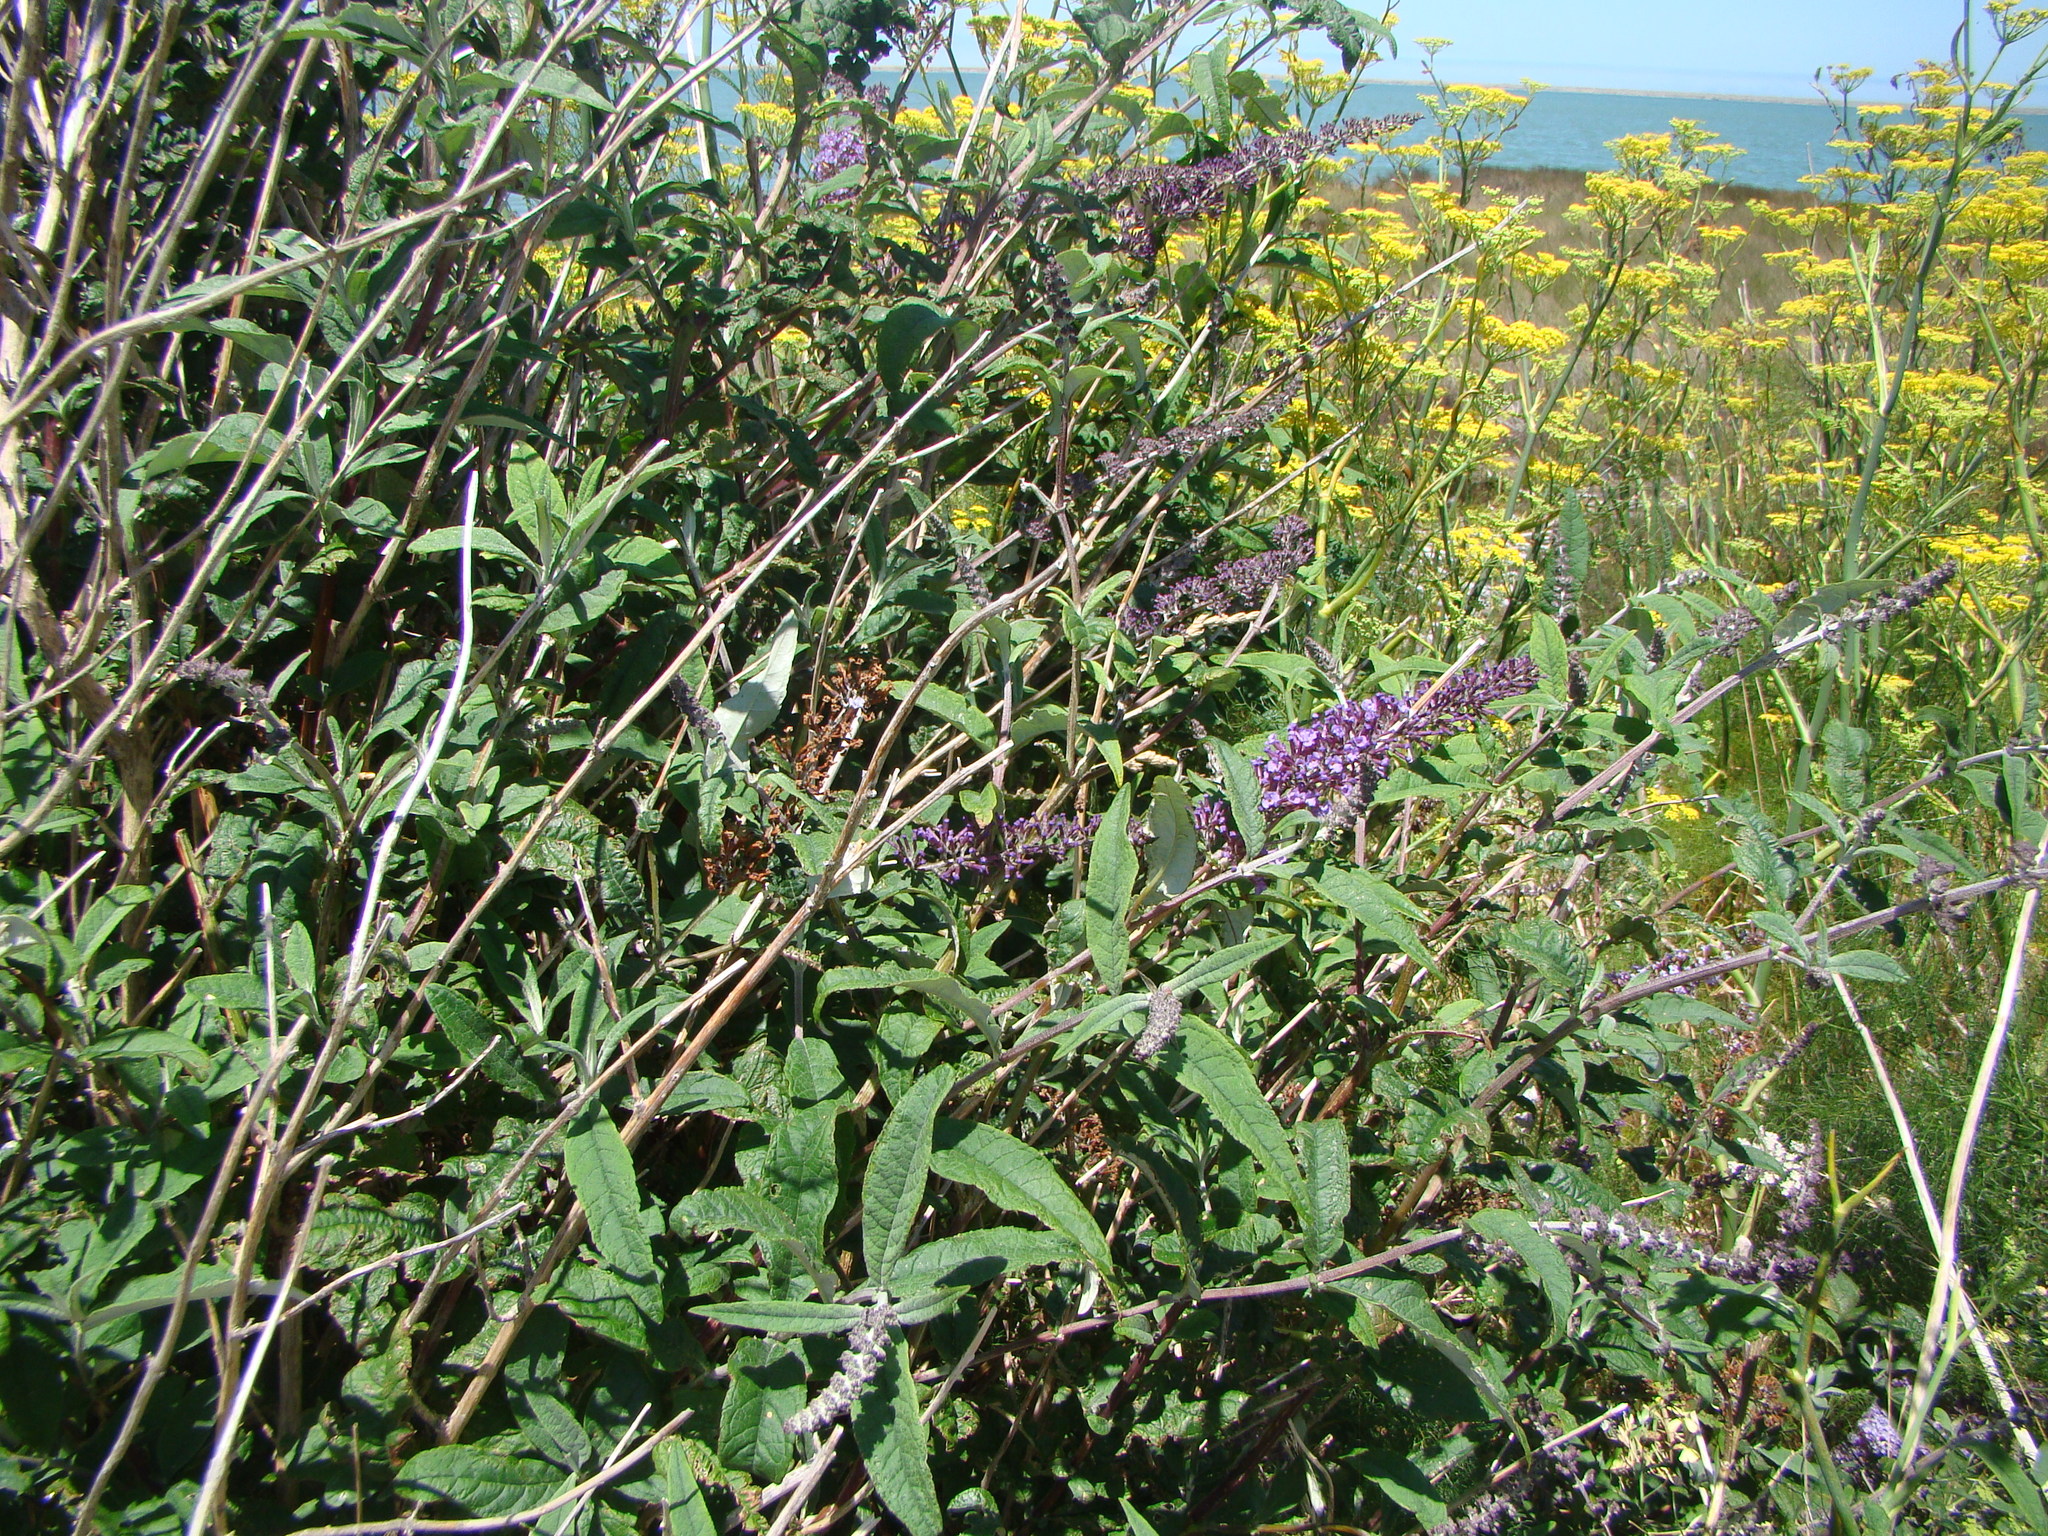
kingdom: Plantae
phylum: Tracheophyta
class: Magnoliopsida
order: Lamiales
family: Scrophulariaceae
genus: Buddleja
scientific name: Buddleja davidii
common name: Butterfly-bush
